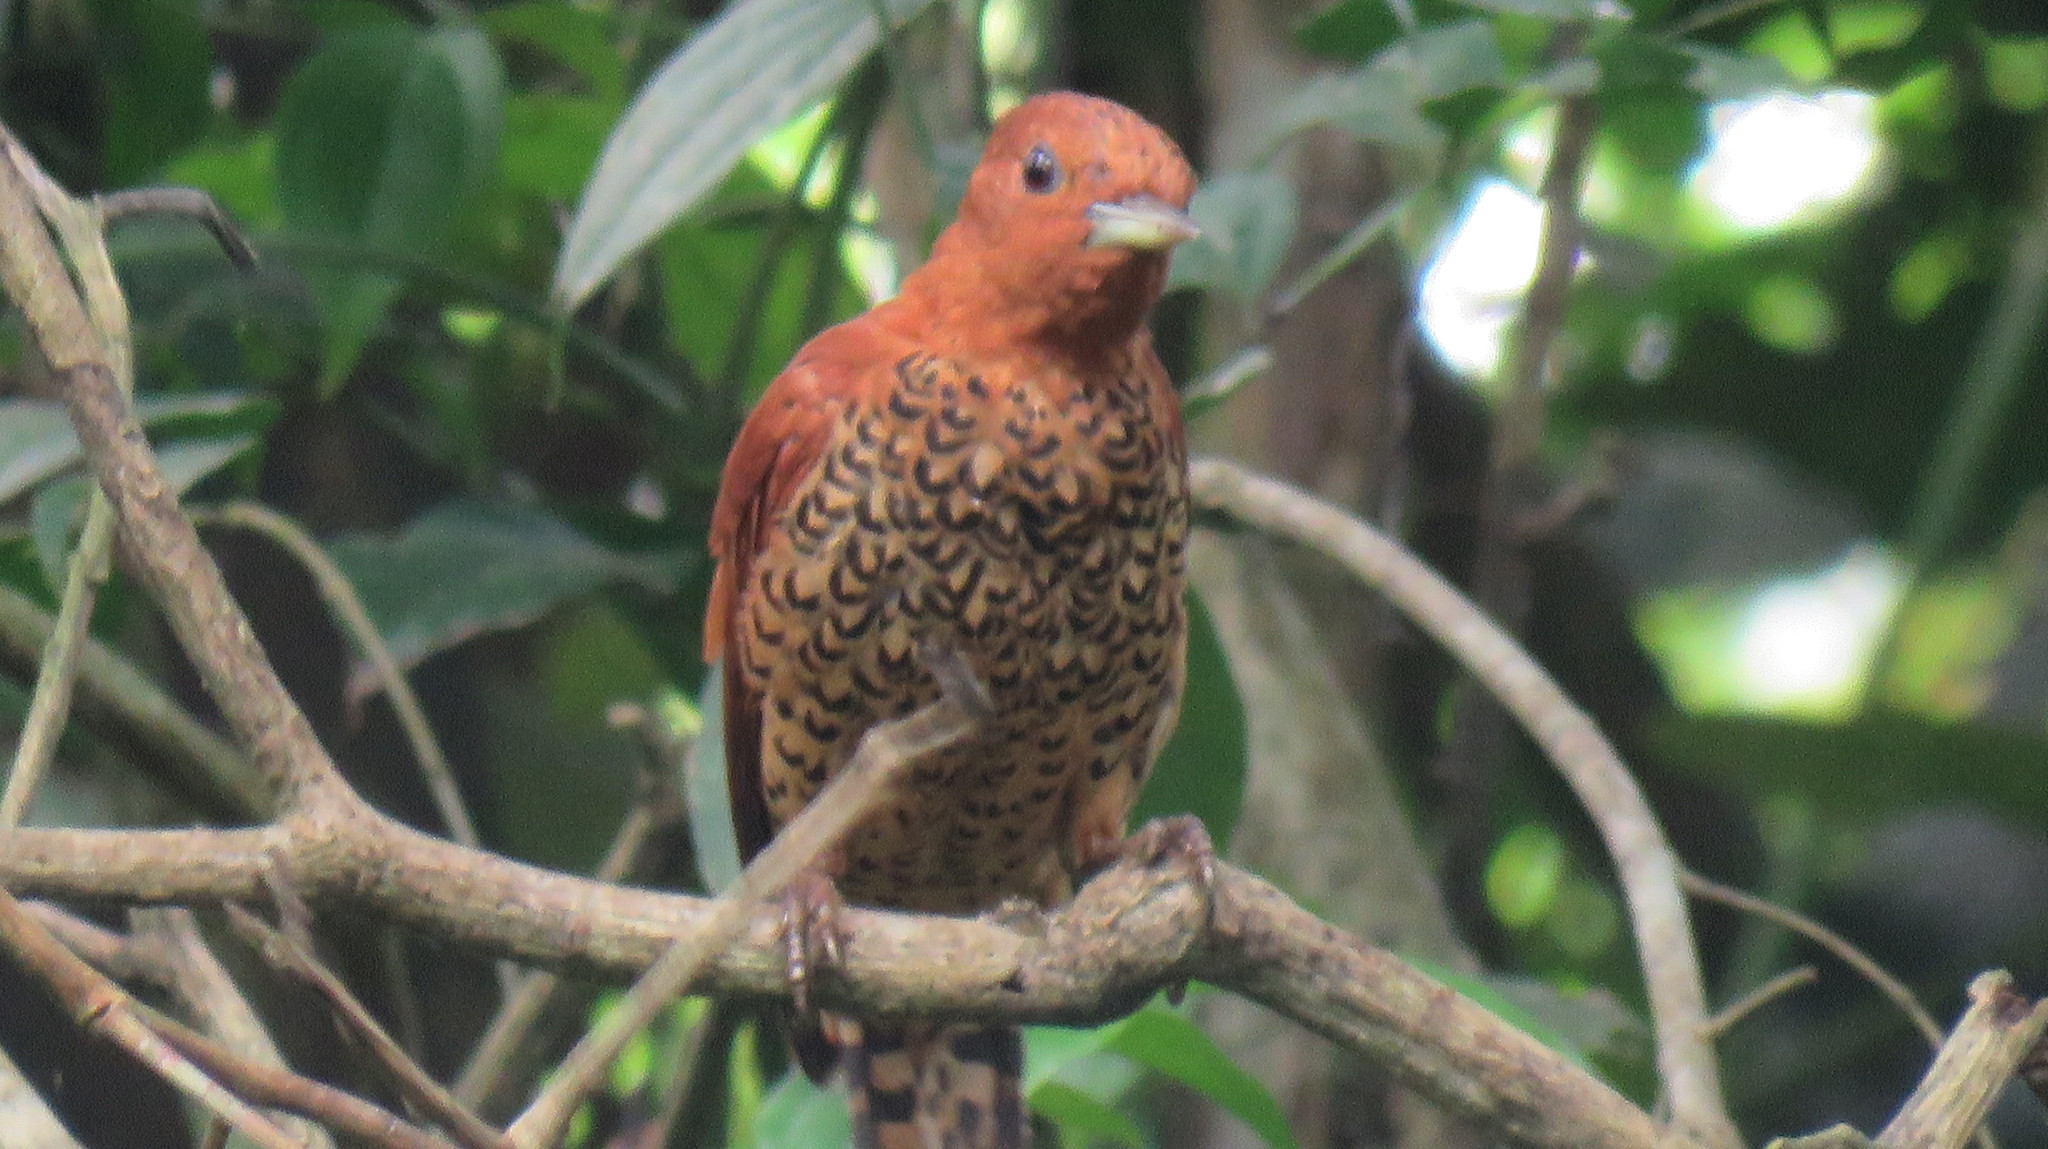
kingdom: Animalia
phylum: Chordata
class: Aves
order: Piciformes
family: Picidae
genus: Celeus
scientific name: Celeus loricatus
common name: Cinnamon woodpecker
